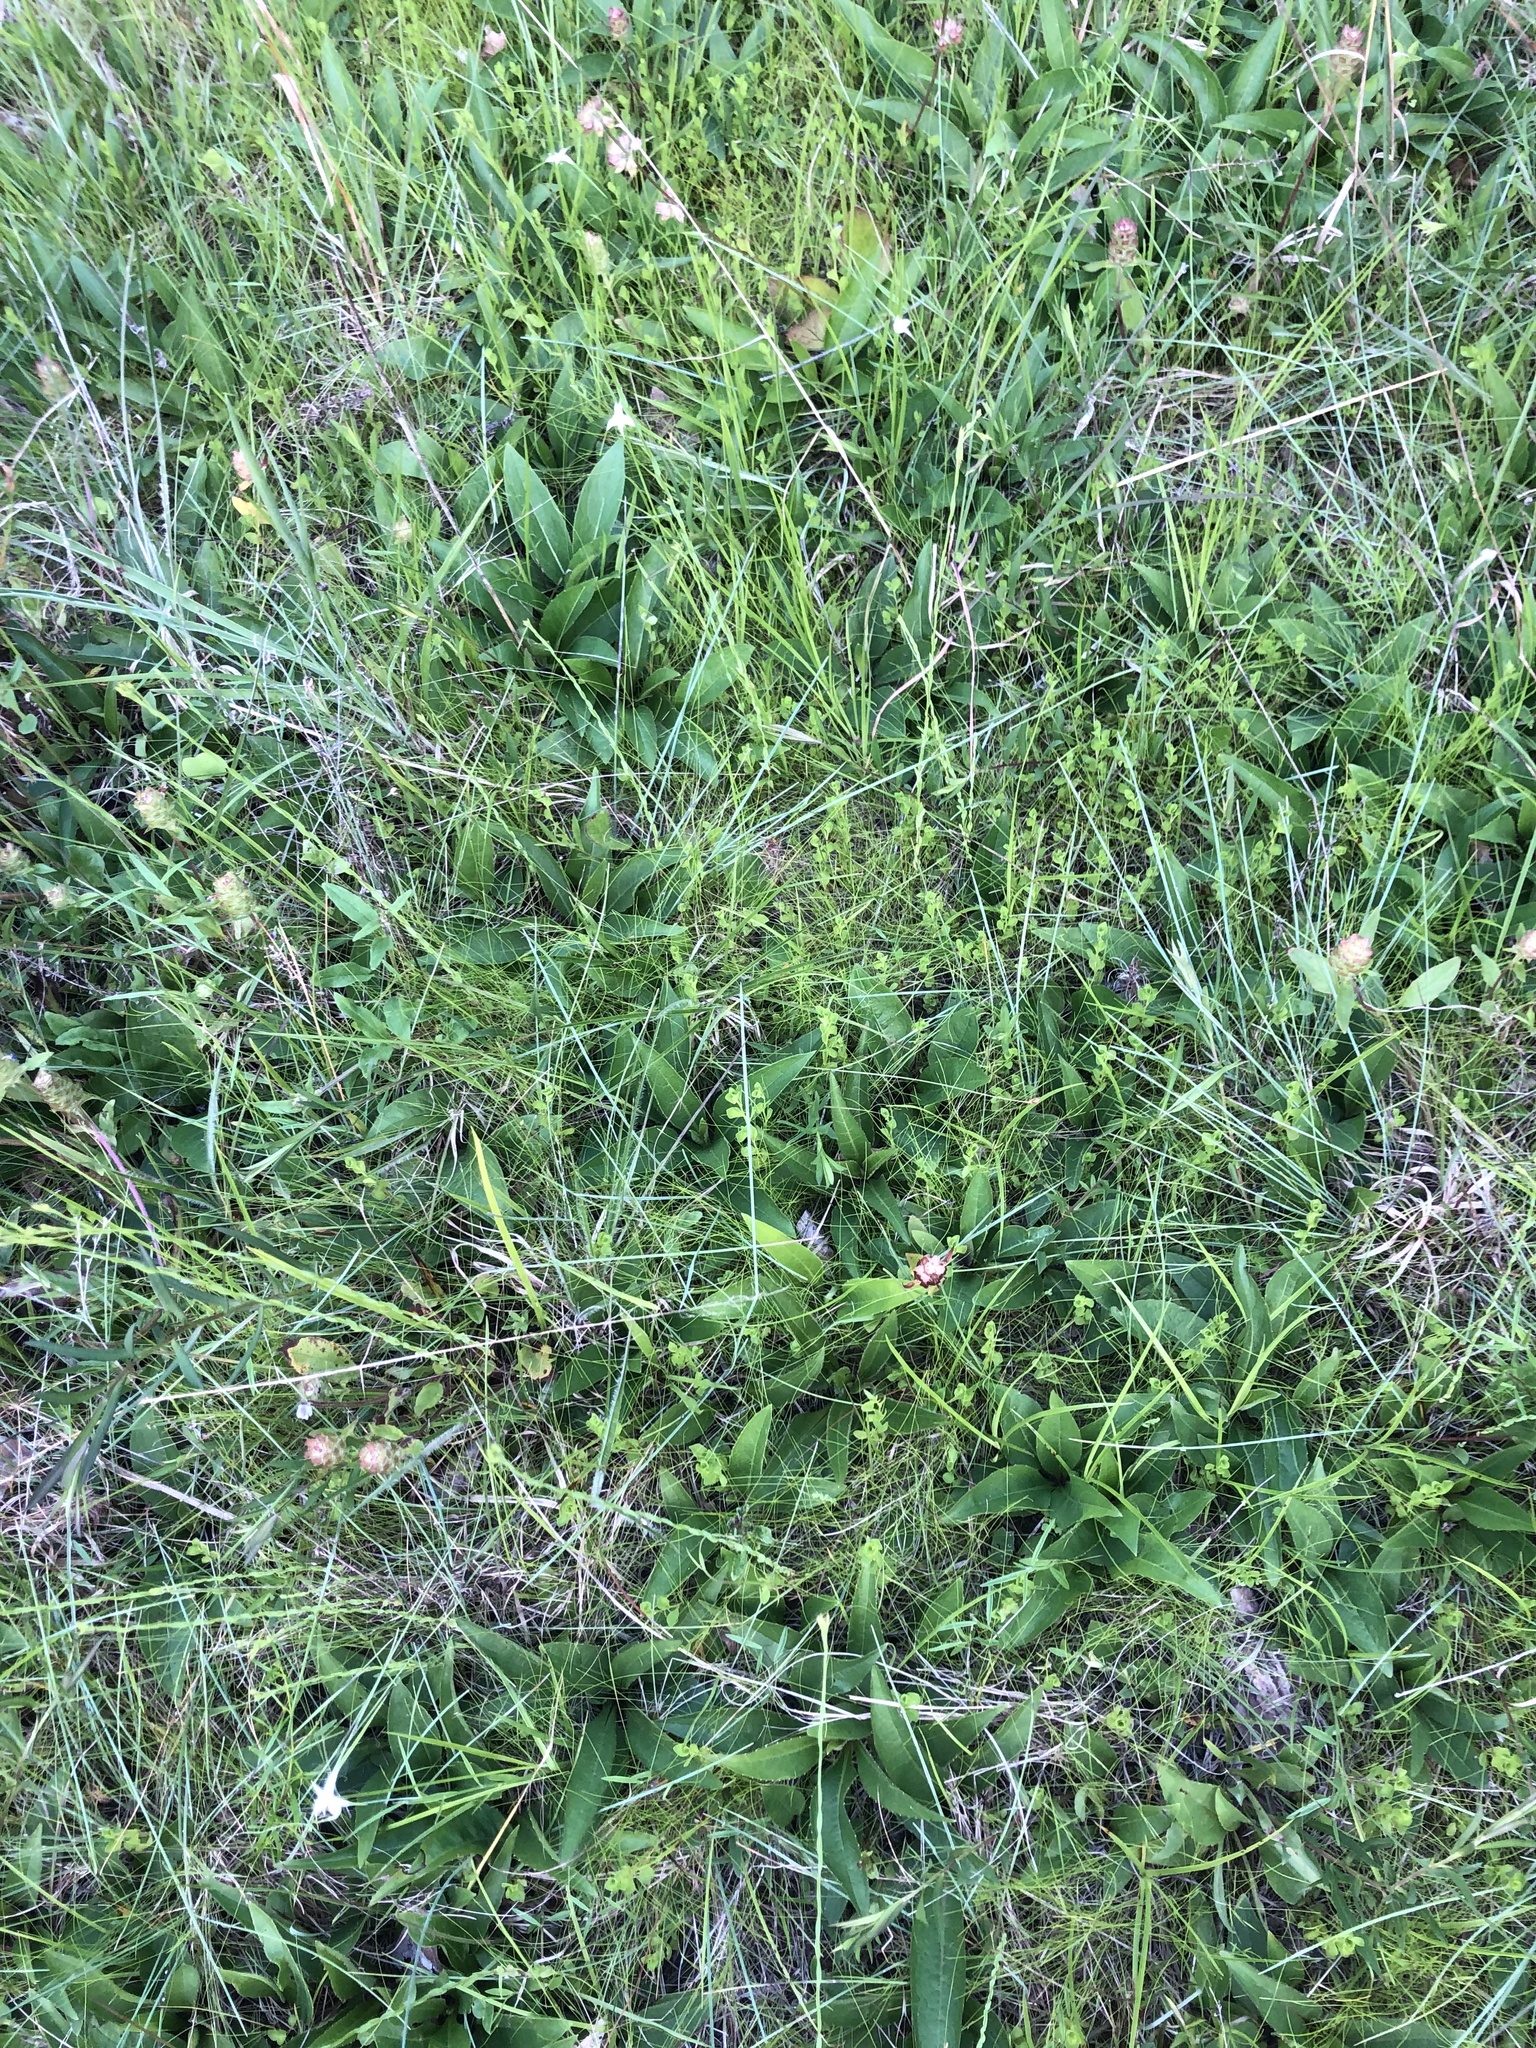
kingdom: Plantae
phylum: Tracheophyta
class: Magnoliopsida
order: Asterales
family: Asteraceae
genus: Silphium
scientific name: Silphium confertifolium
